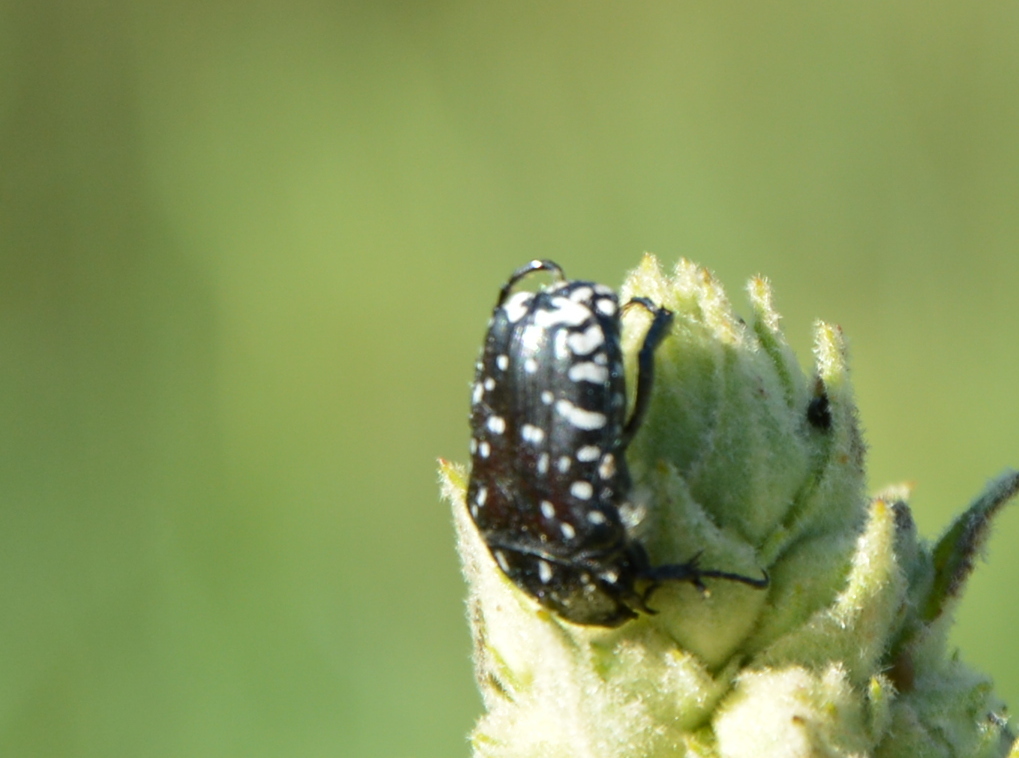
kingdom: Animalia
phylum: Arthropoda
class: Insecta
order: Coleoptera
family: Scarabaeidae
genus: Oxythyrea
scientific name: Oxythyrea funesta
